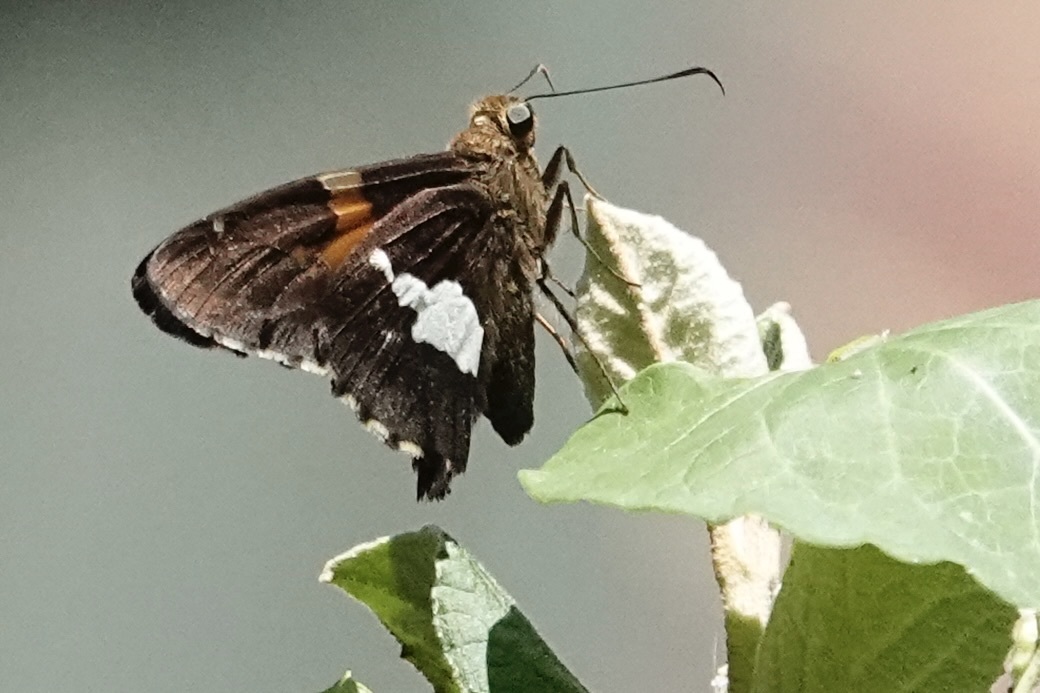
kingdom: Animalia
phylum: Arthropoda
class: Insecta
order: Lepidoptera
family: Hesperiidae
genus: Epargyreus
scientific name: Epargyreus clarus
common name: Silver-spotted skipper
